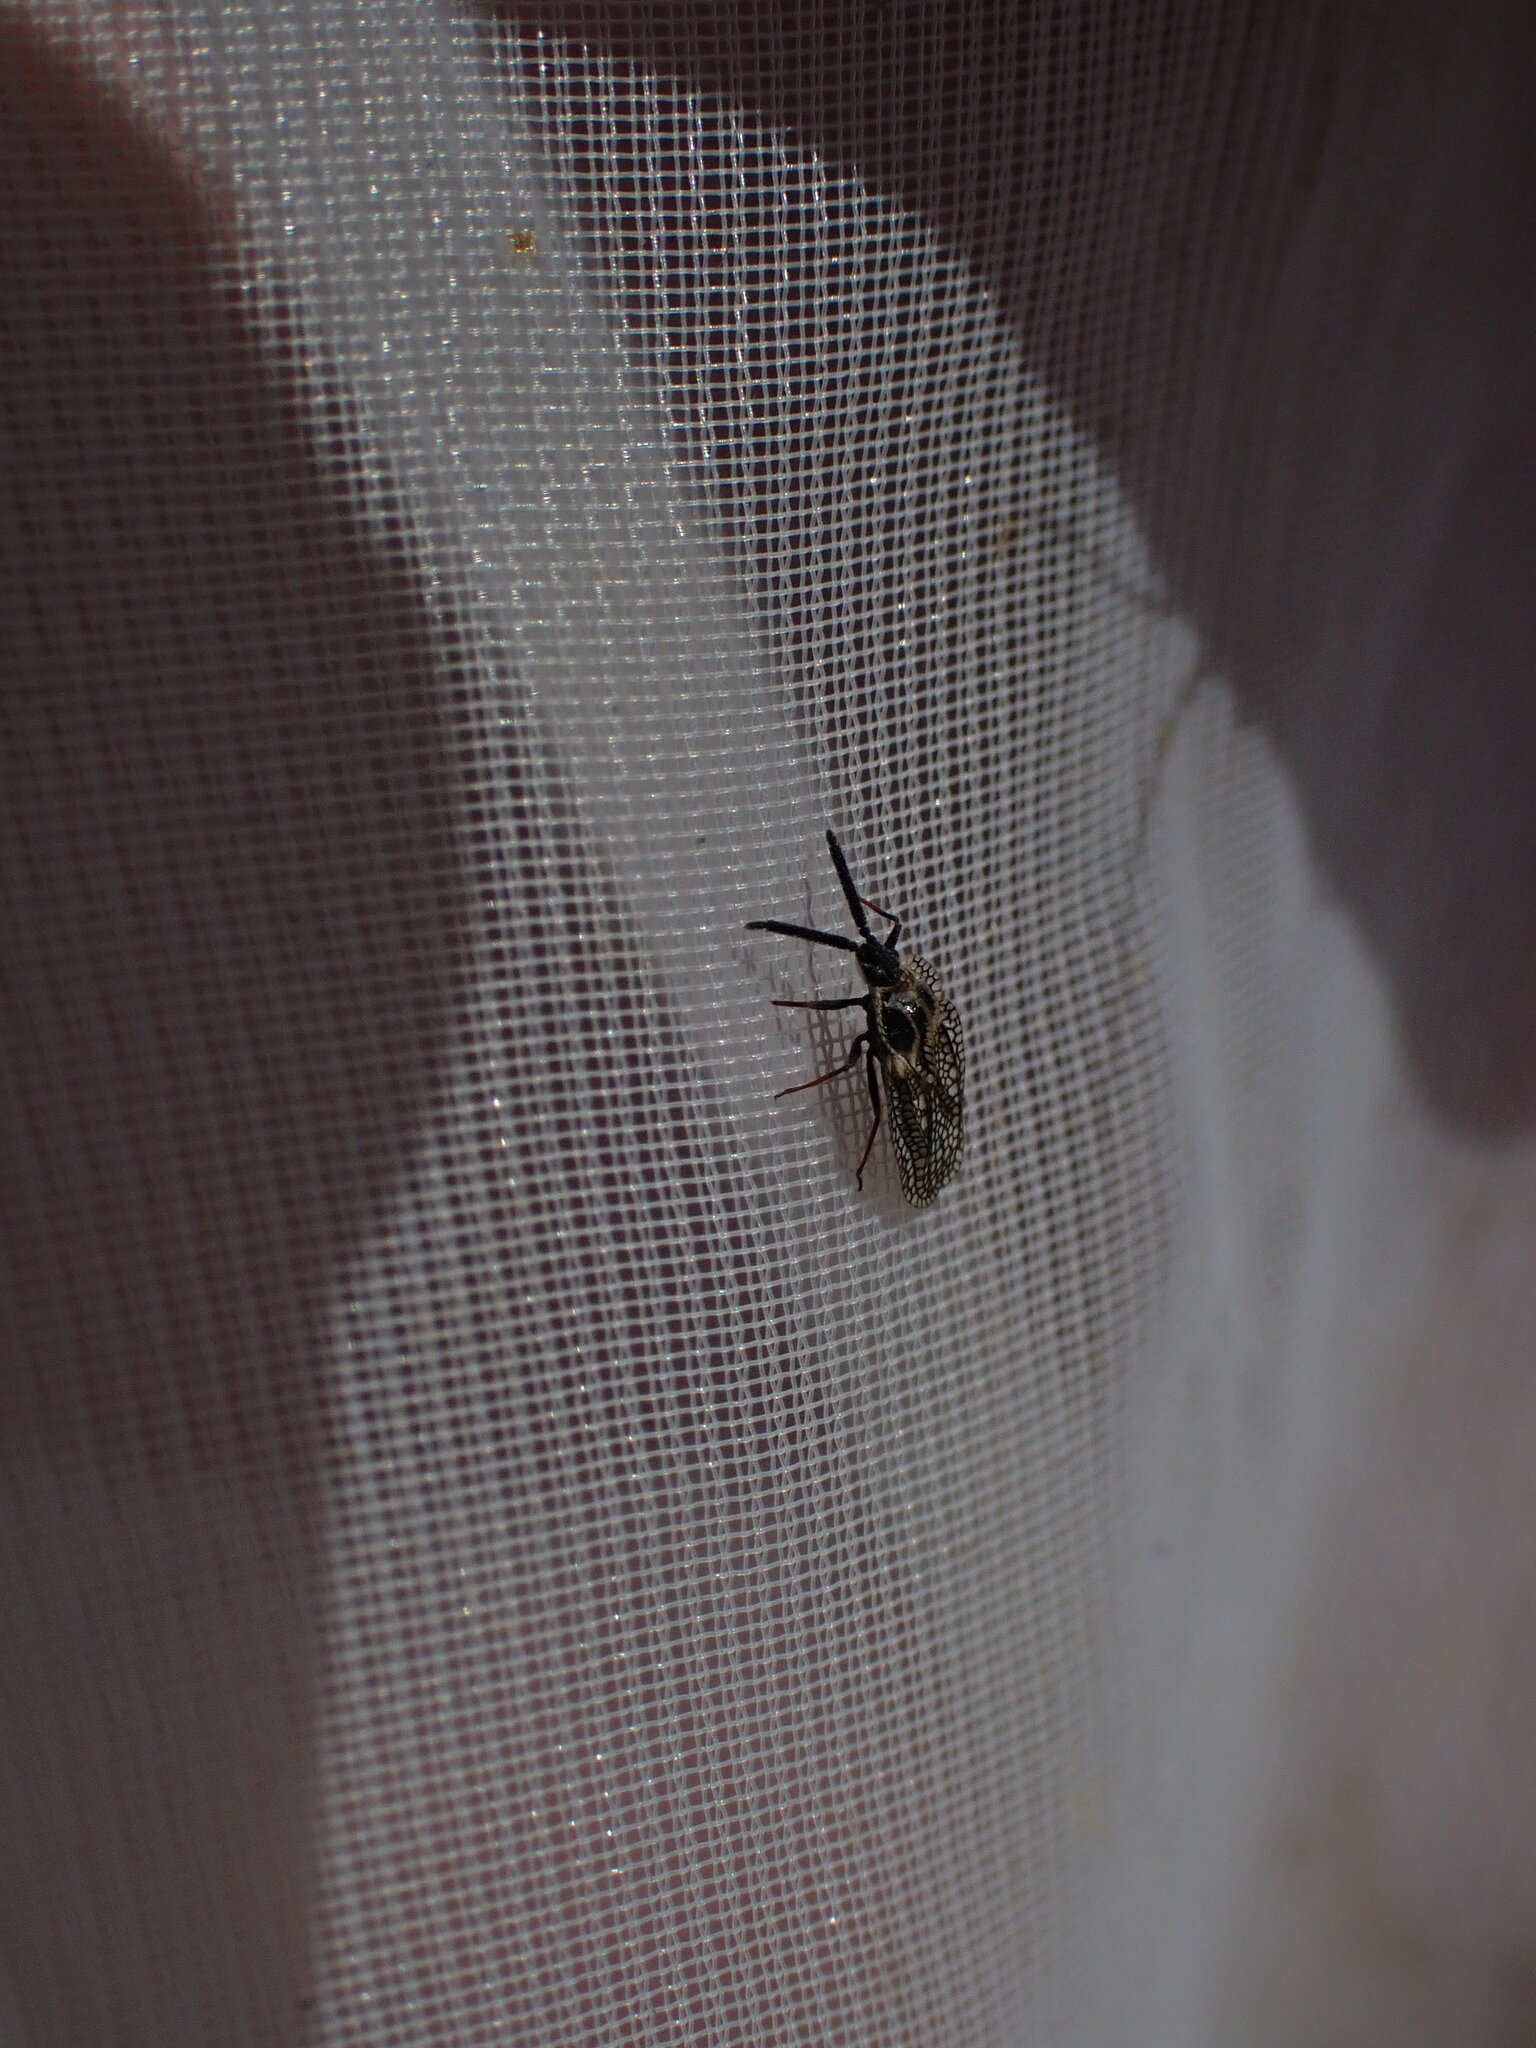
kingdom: Animalia
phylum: Arthropoda
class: Insecta
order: Hemiptera
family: Tingidae
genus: Dictyonota
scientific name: Dictyonota strichnocera
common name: Gorse lacebug
